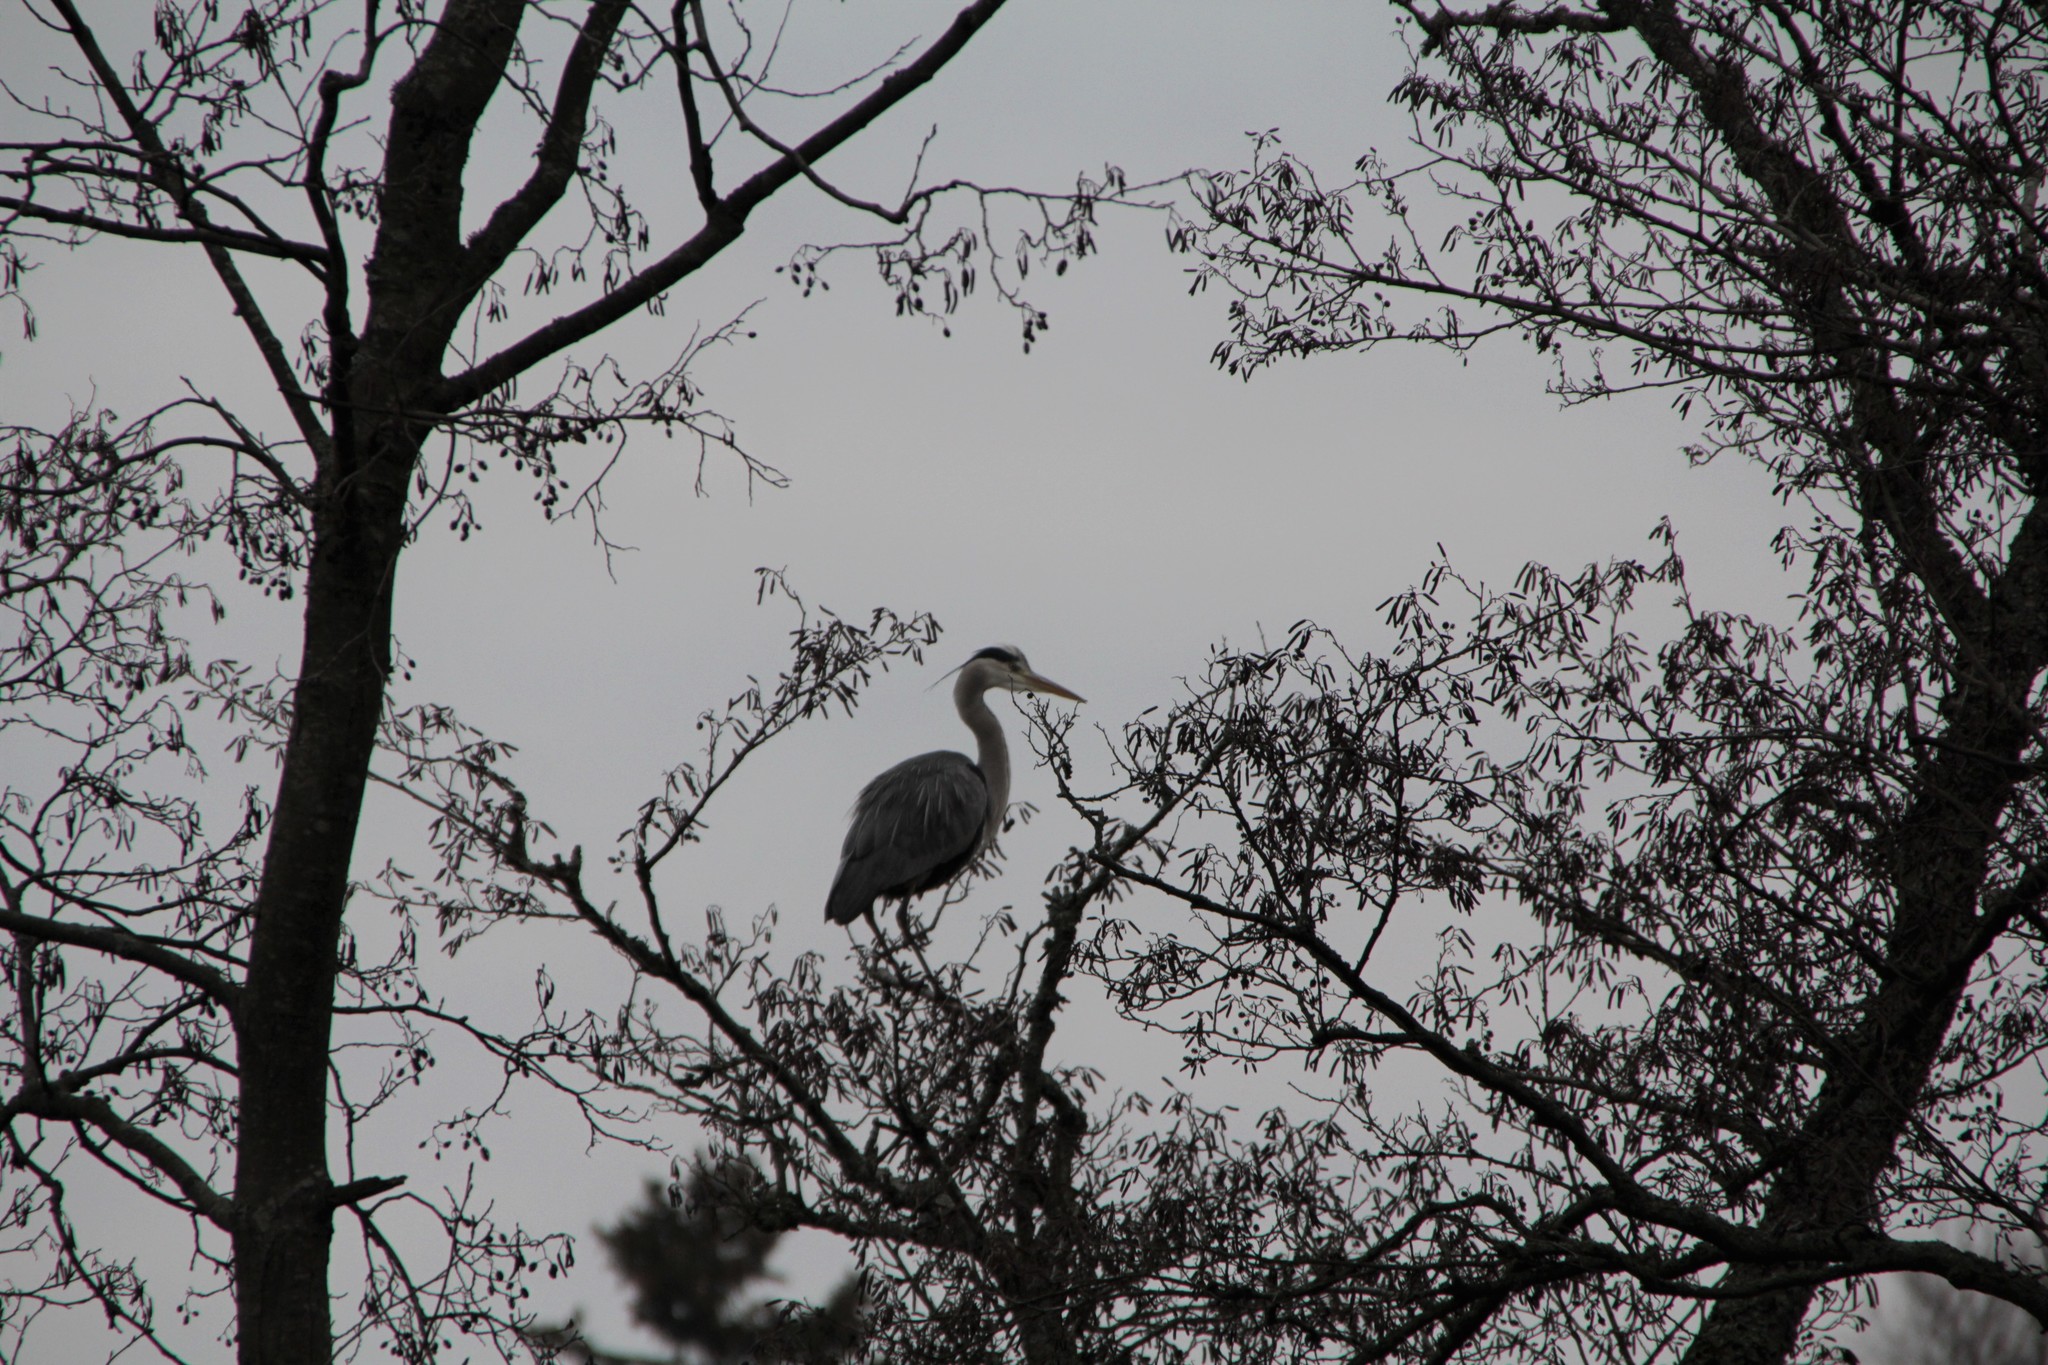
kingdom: Animalia
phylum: Chordata
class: Aves
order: Pelecaniformes
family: Ardeidae
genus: Ardea
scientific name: Ardea cinerea
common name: Grey heron
